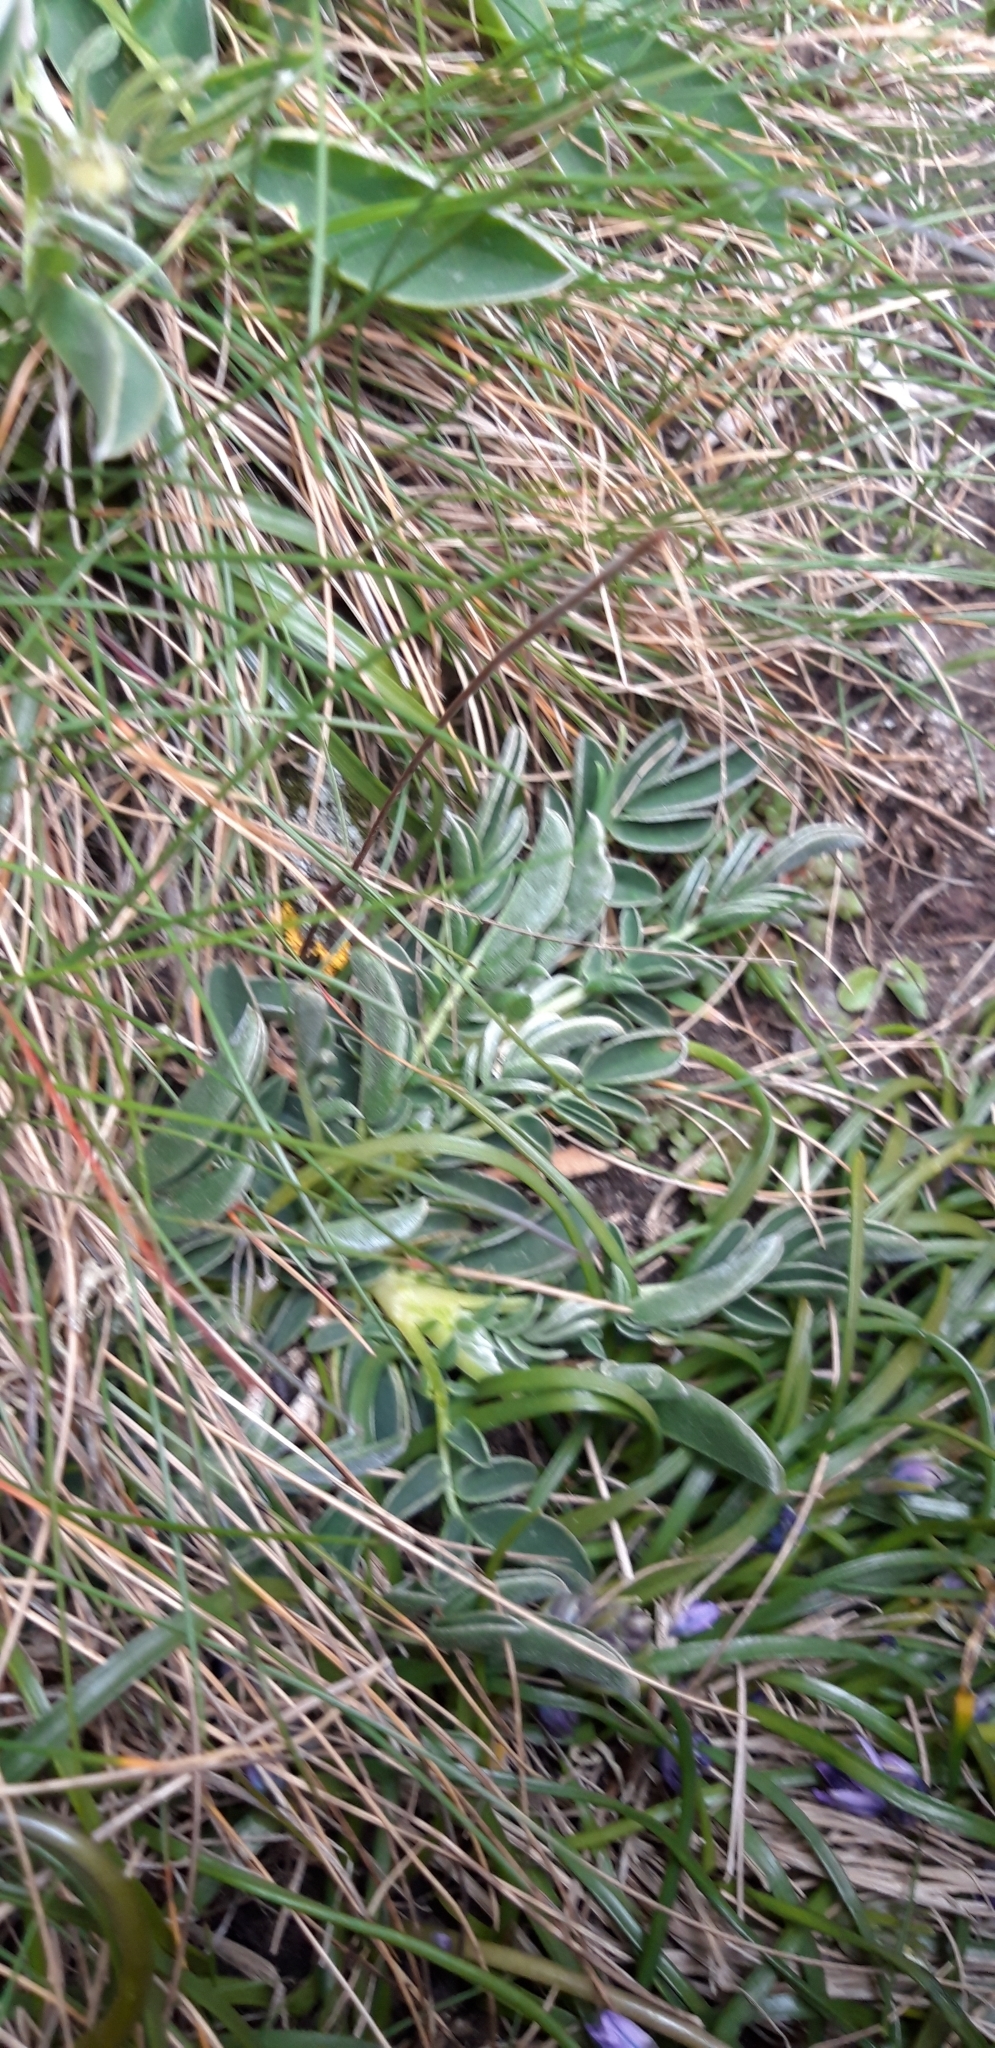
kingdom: Plantae
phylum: Tracheophyta
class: Magnoliopsida
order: Fabales
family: Fabaceae
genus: Anthyllis
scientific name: Anthyllis vulneraria
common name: Kidney vetch
